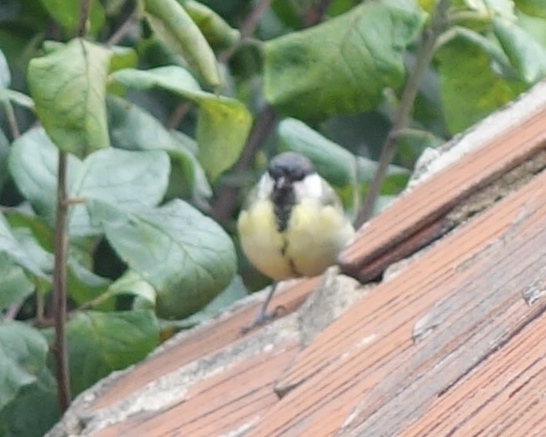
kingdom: Animalia
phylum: Chordata
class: Aves
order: Passeriformes
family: Paridae
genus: Parus
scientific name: Parus major
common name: Great tit
